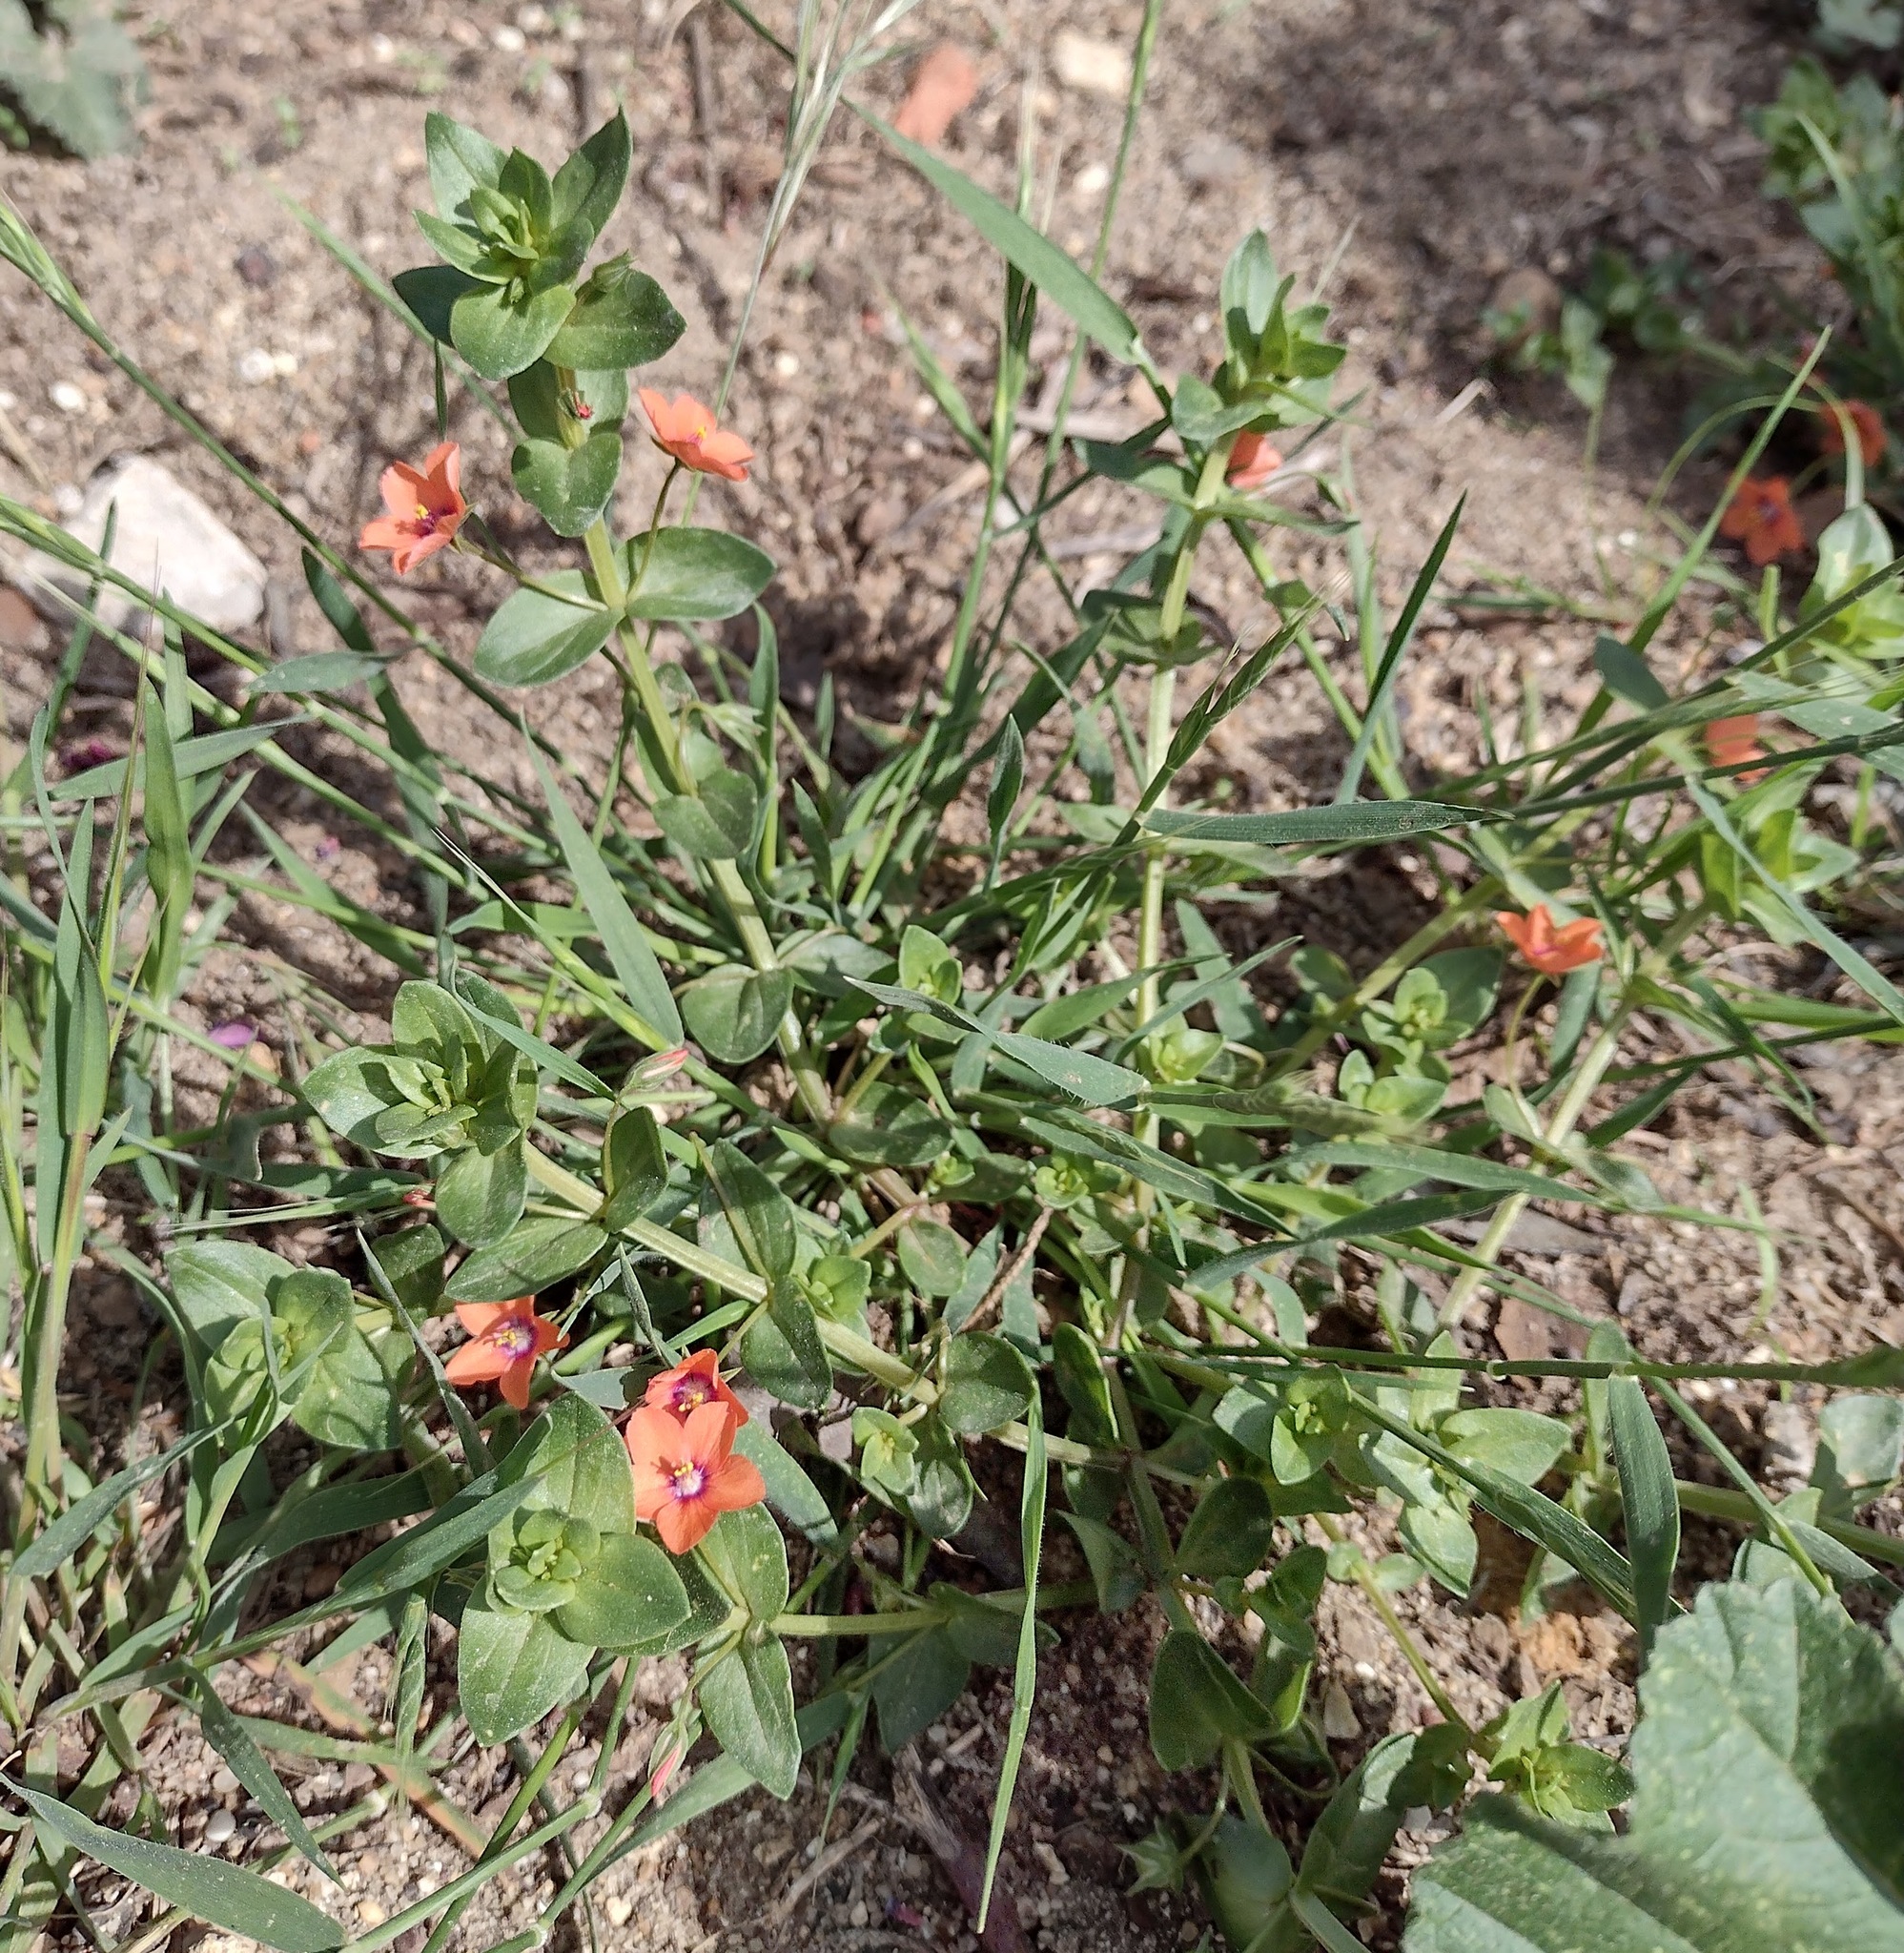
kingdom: Plantae
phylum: Tracheophyta
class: Magnoliopsida
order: Ericales
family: Primulaceae
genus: Lysimachia
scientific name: Lysimachia arvensis
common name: Scarlet pimpernel
